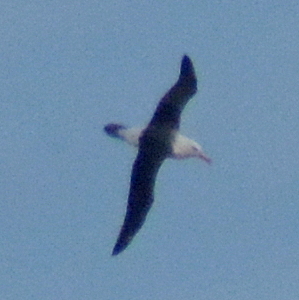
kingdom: Animalia
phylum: Chordata
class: Aves
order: Procellariiformes
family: Diomedeidae
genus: Thalassarche
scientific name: Thalassarche melanophris
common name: Black-browed albatross
